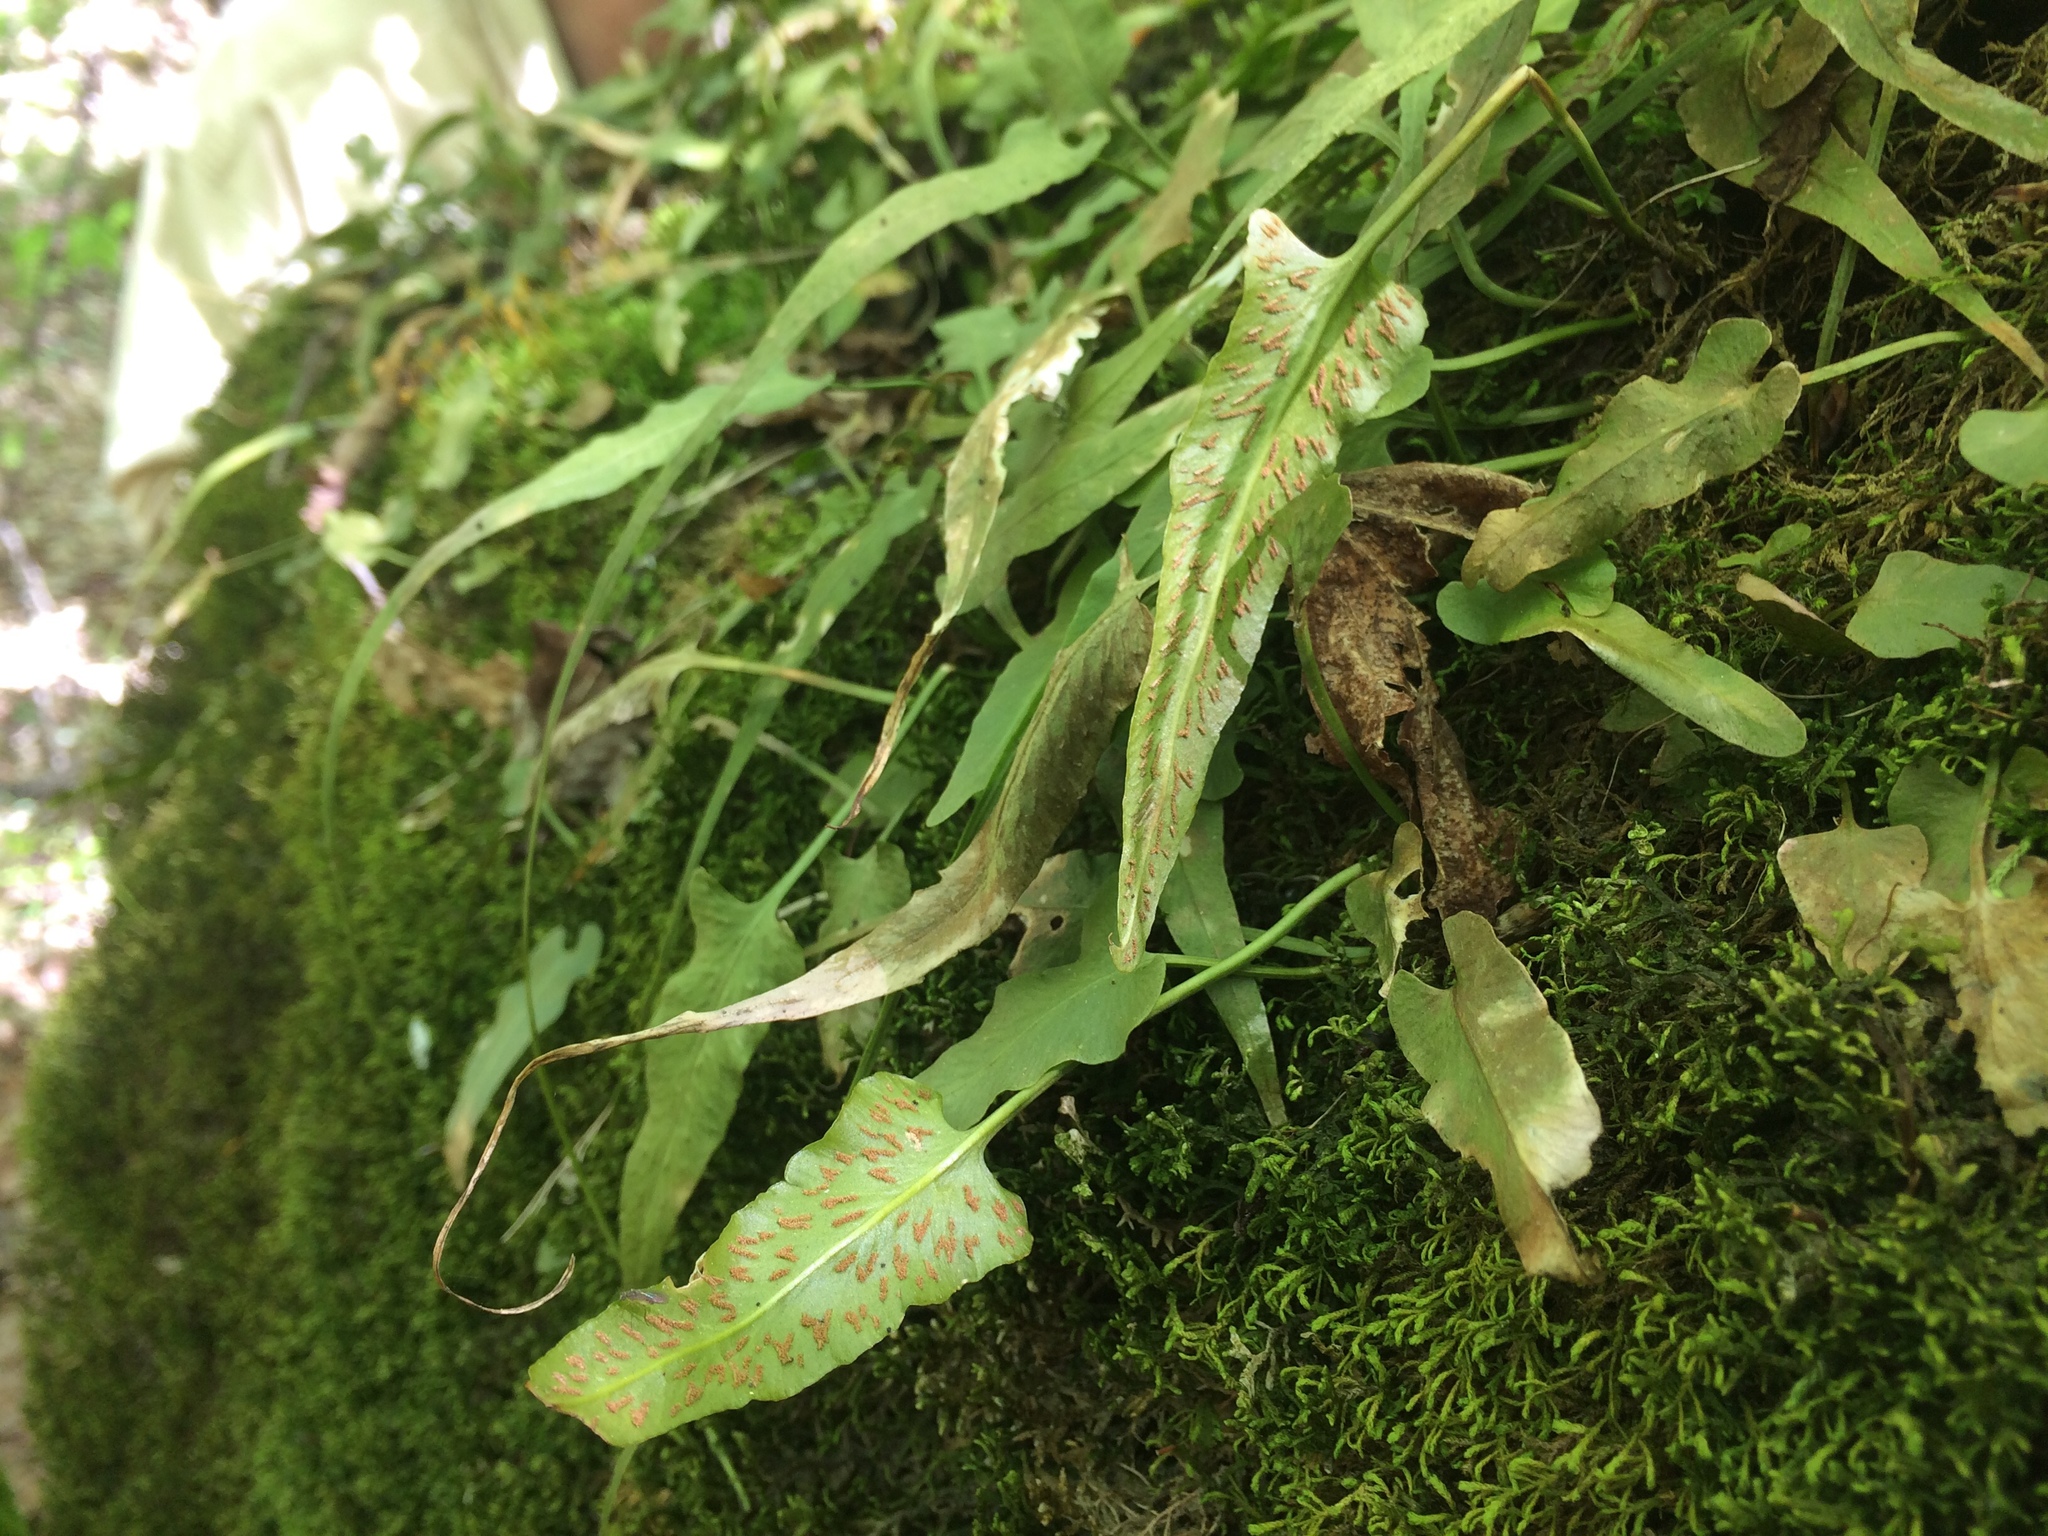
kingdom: Plantae
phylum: Tracheophyta
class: Polypodiopsida
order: Polypodiales
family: Aspleniaceae
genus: Asplenium
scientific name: Asplenium rhizophyllum
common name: Walking fern
